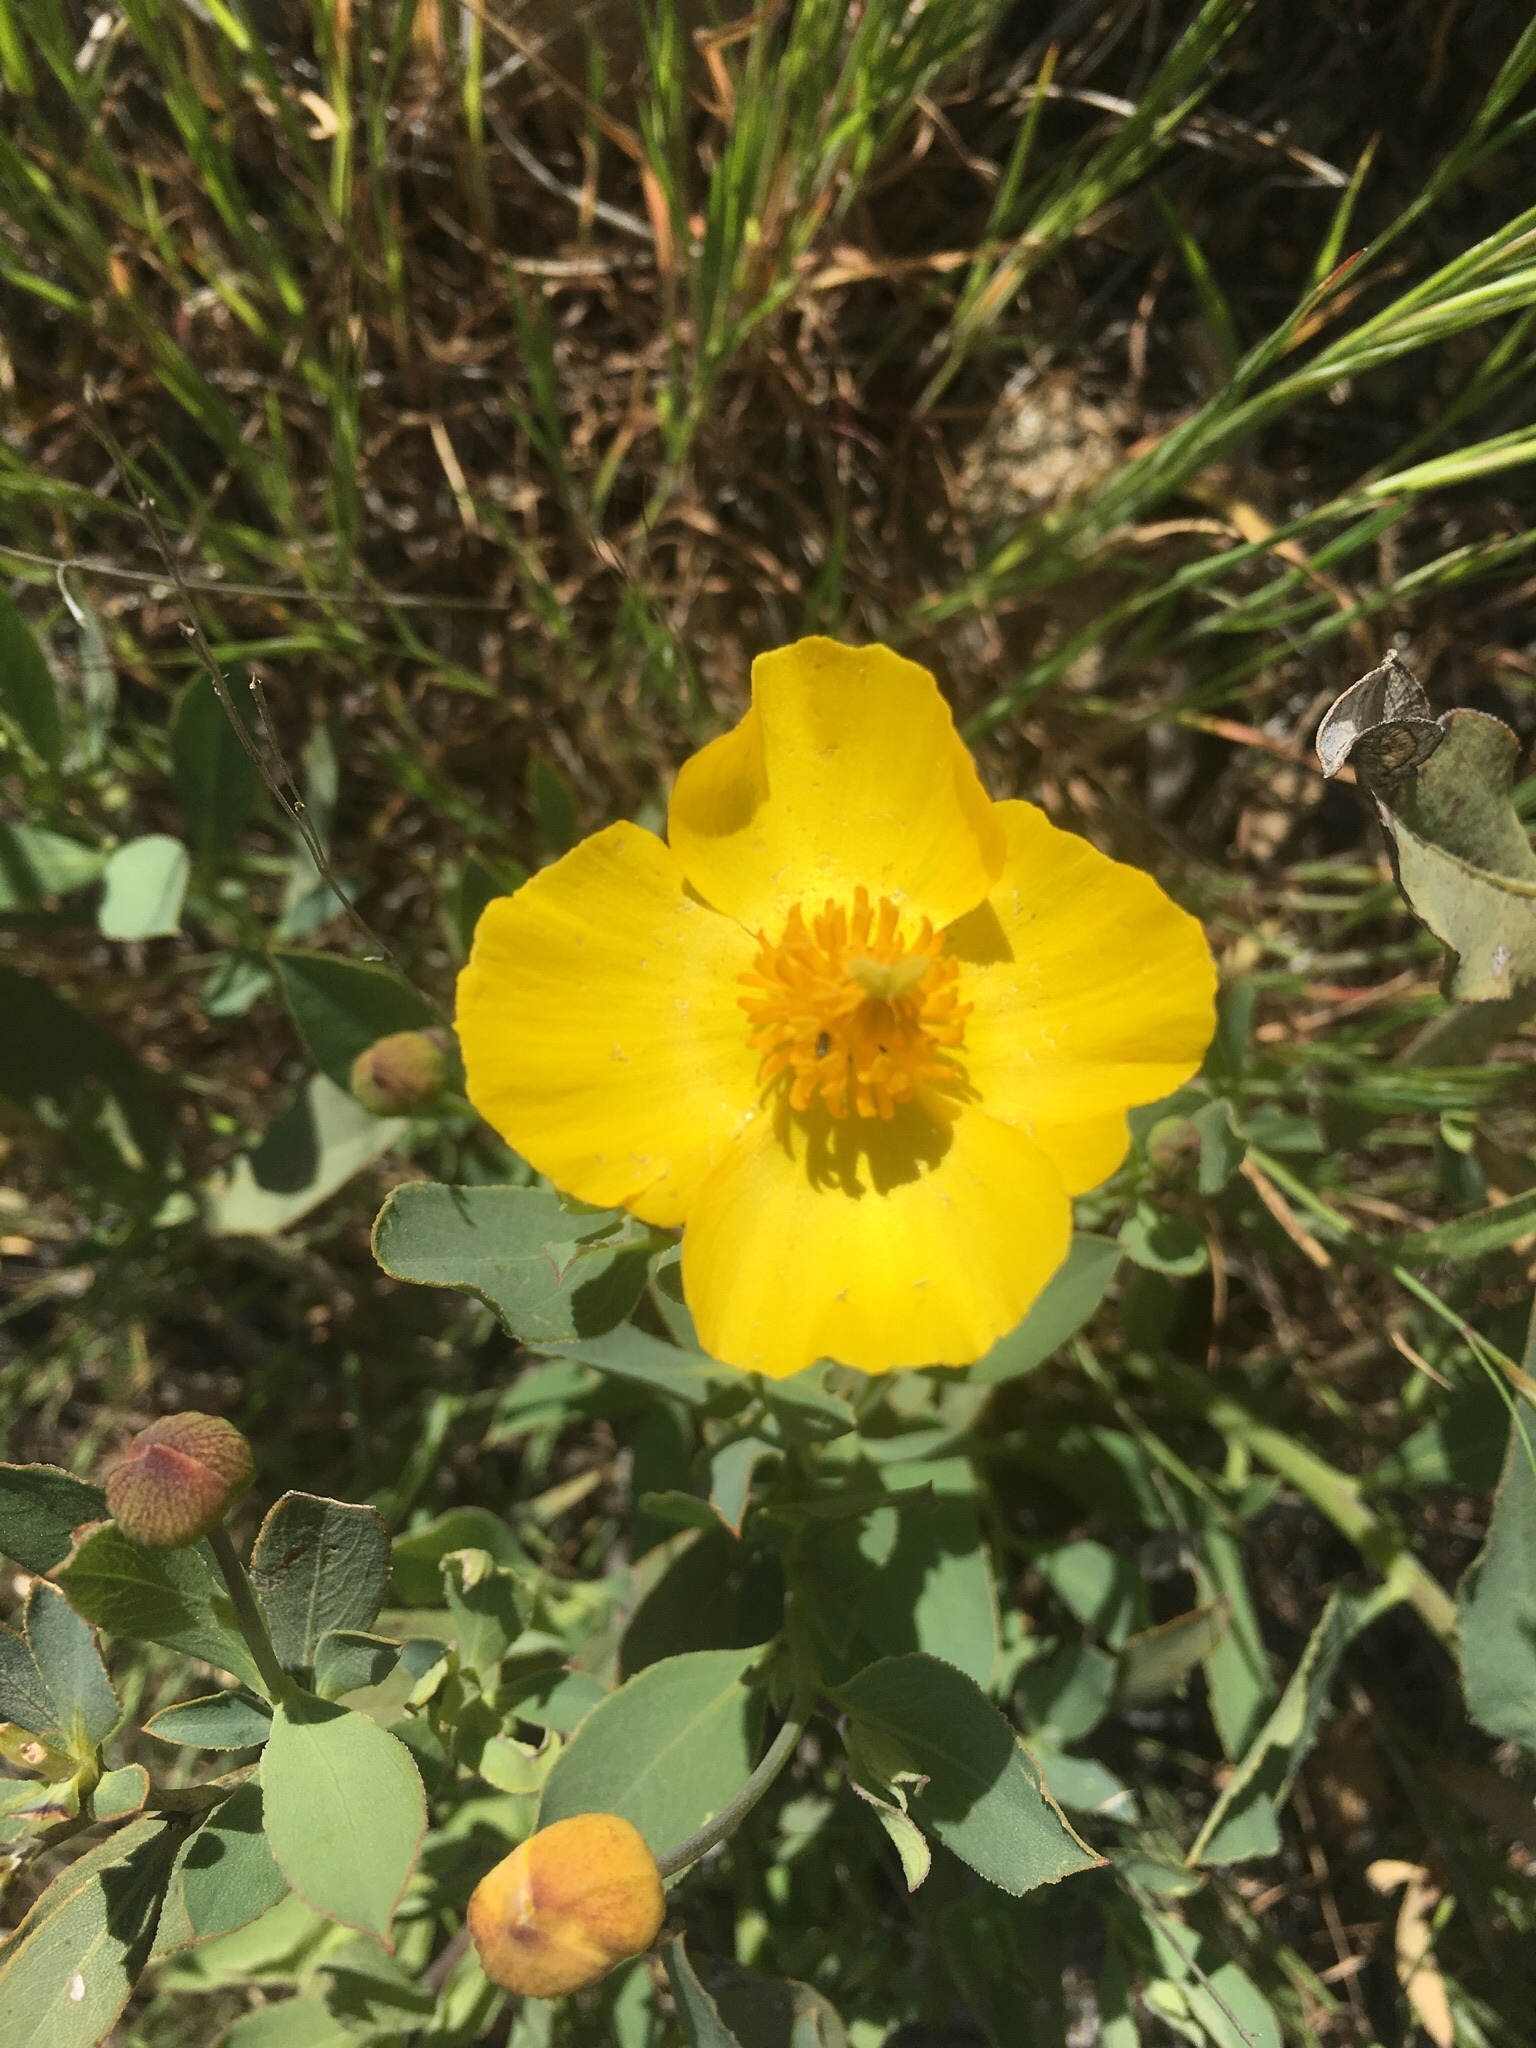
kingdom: Plantae
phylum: Tracheophyta
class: Magnoliopsida
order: Ranunculales
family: Papaveraceae
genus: Dendromecon
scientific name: Dendromecon rigida
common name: Tree poppy
